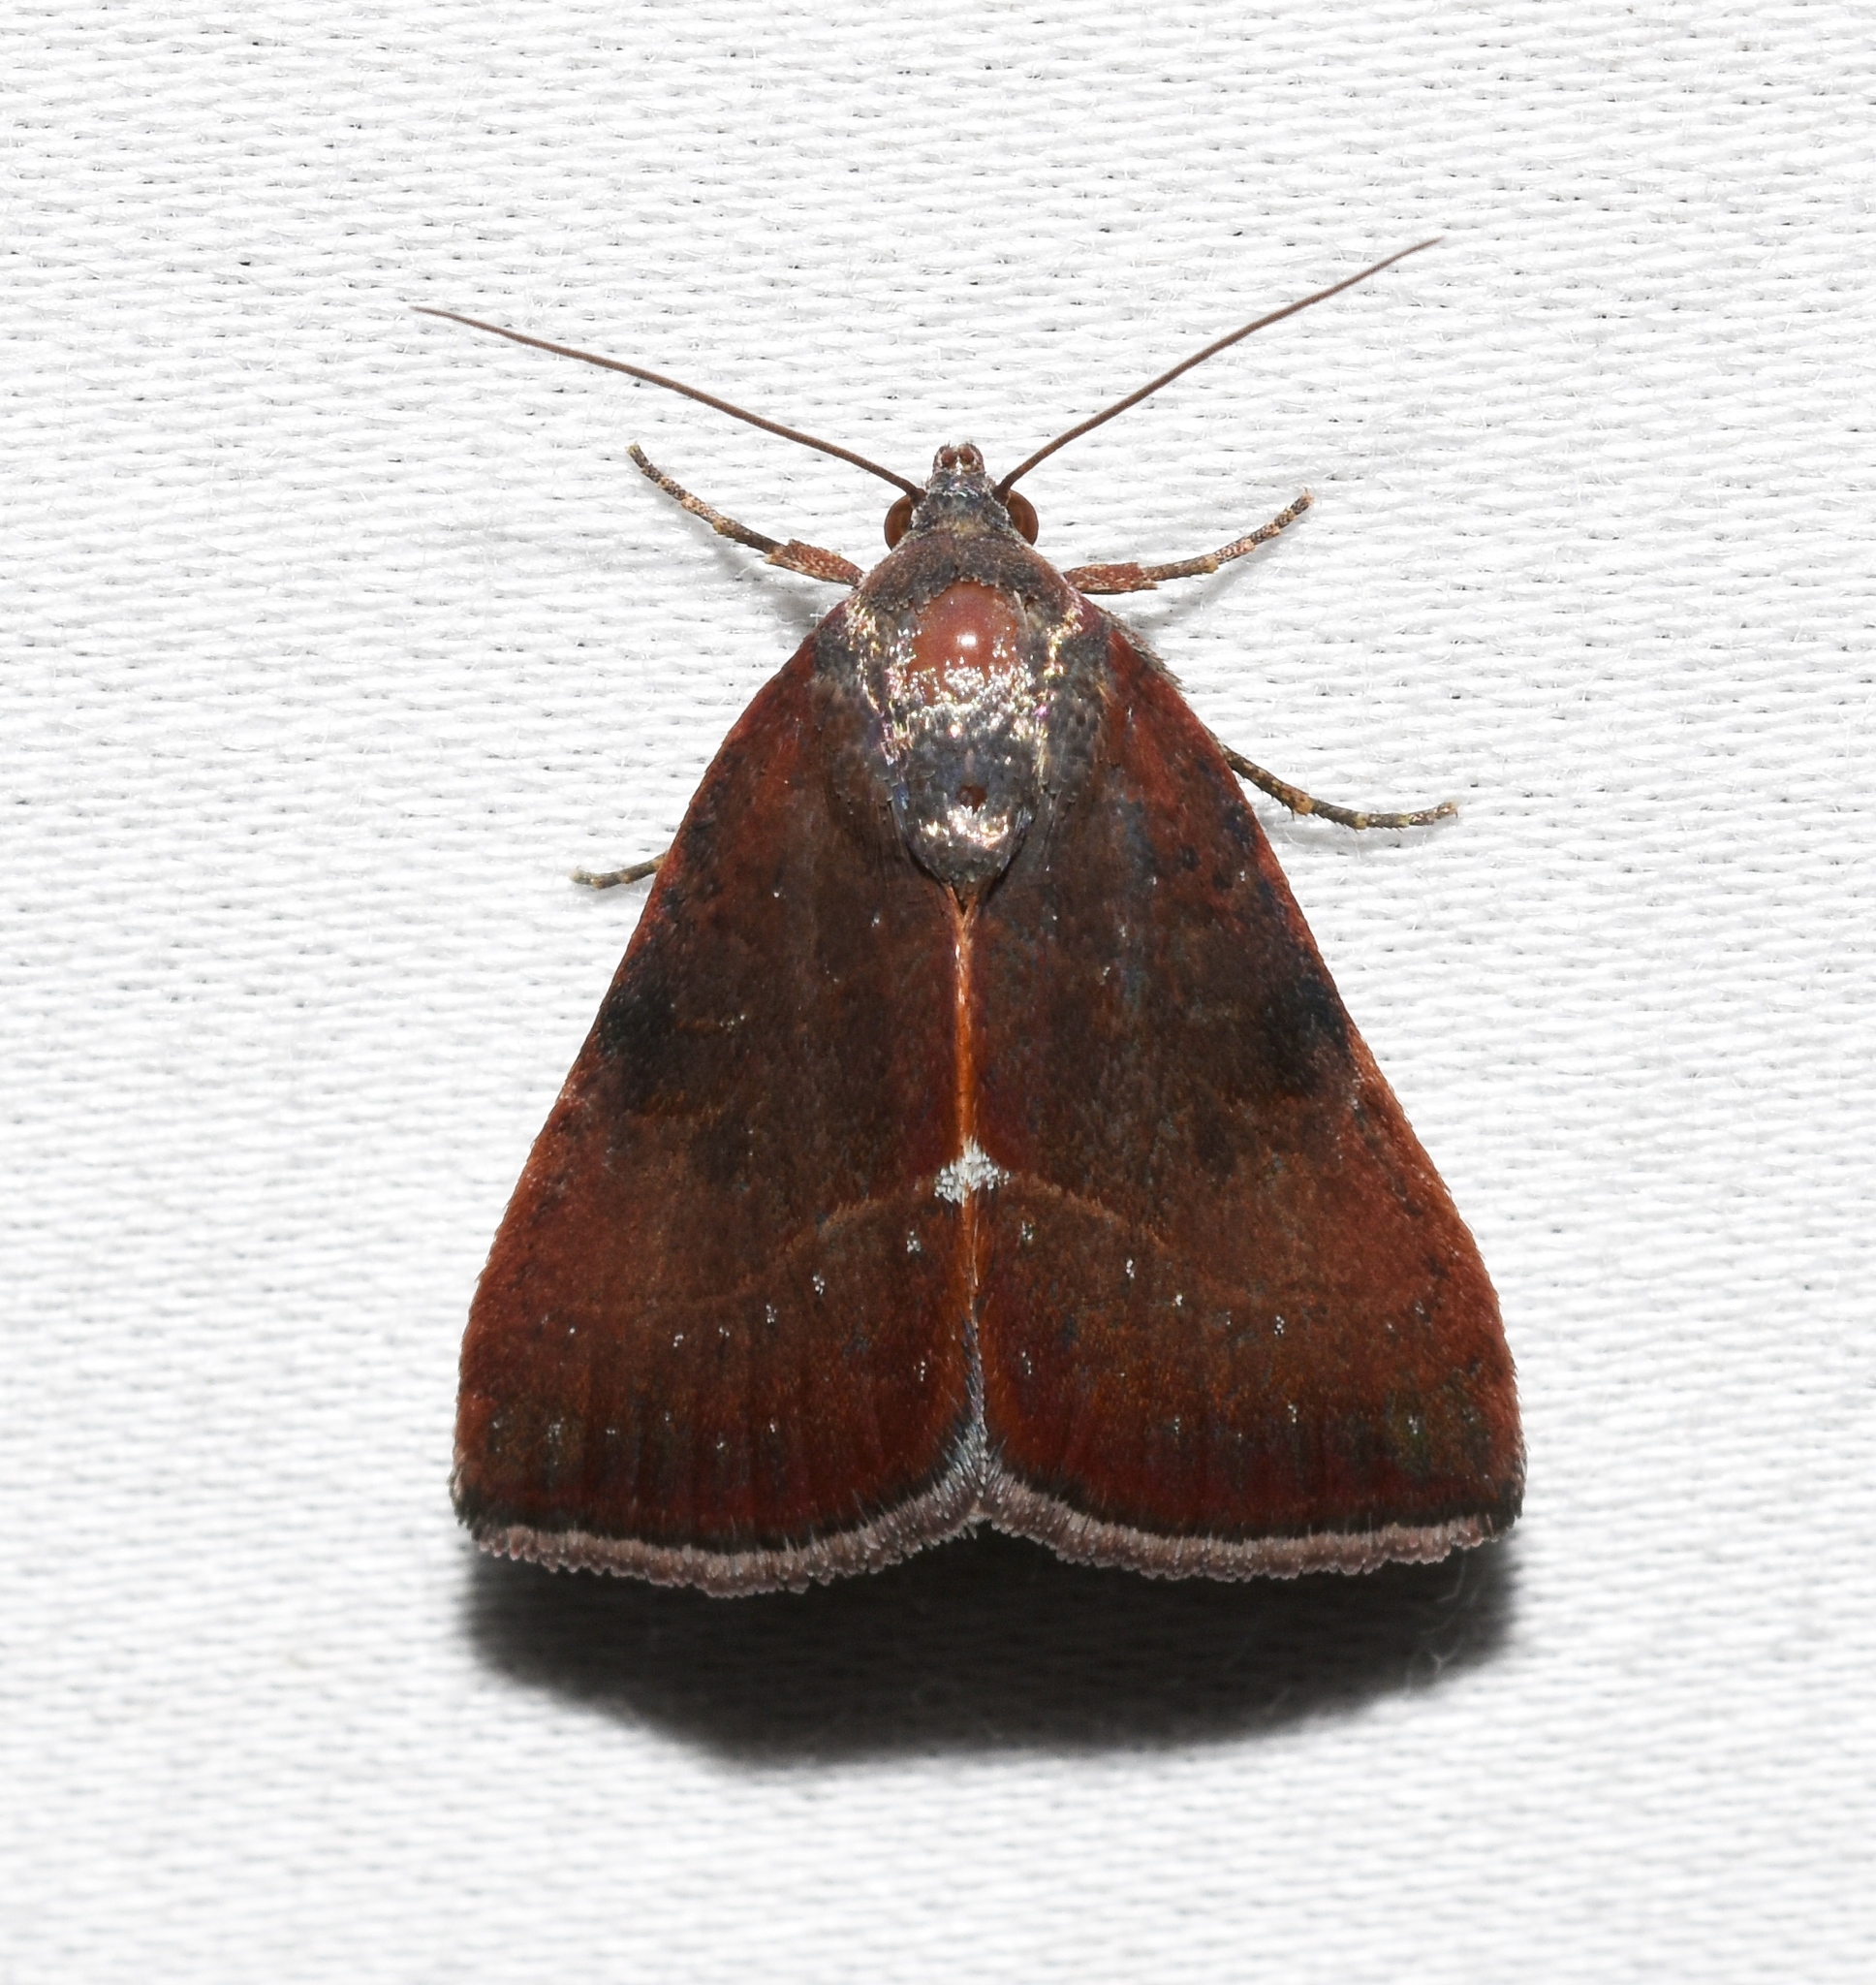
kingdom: Animalia
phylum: Arthropoda
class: Insecta
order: Lepidoptera
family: Noctuidae
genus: Galgula
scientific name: Galgula partita
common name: Wedgeling
